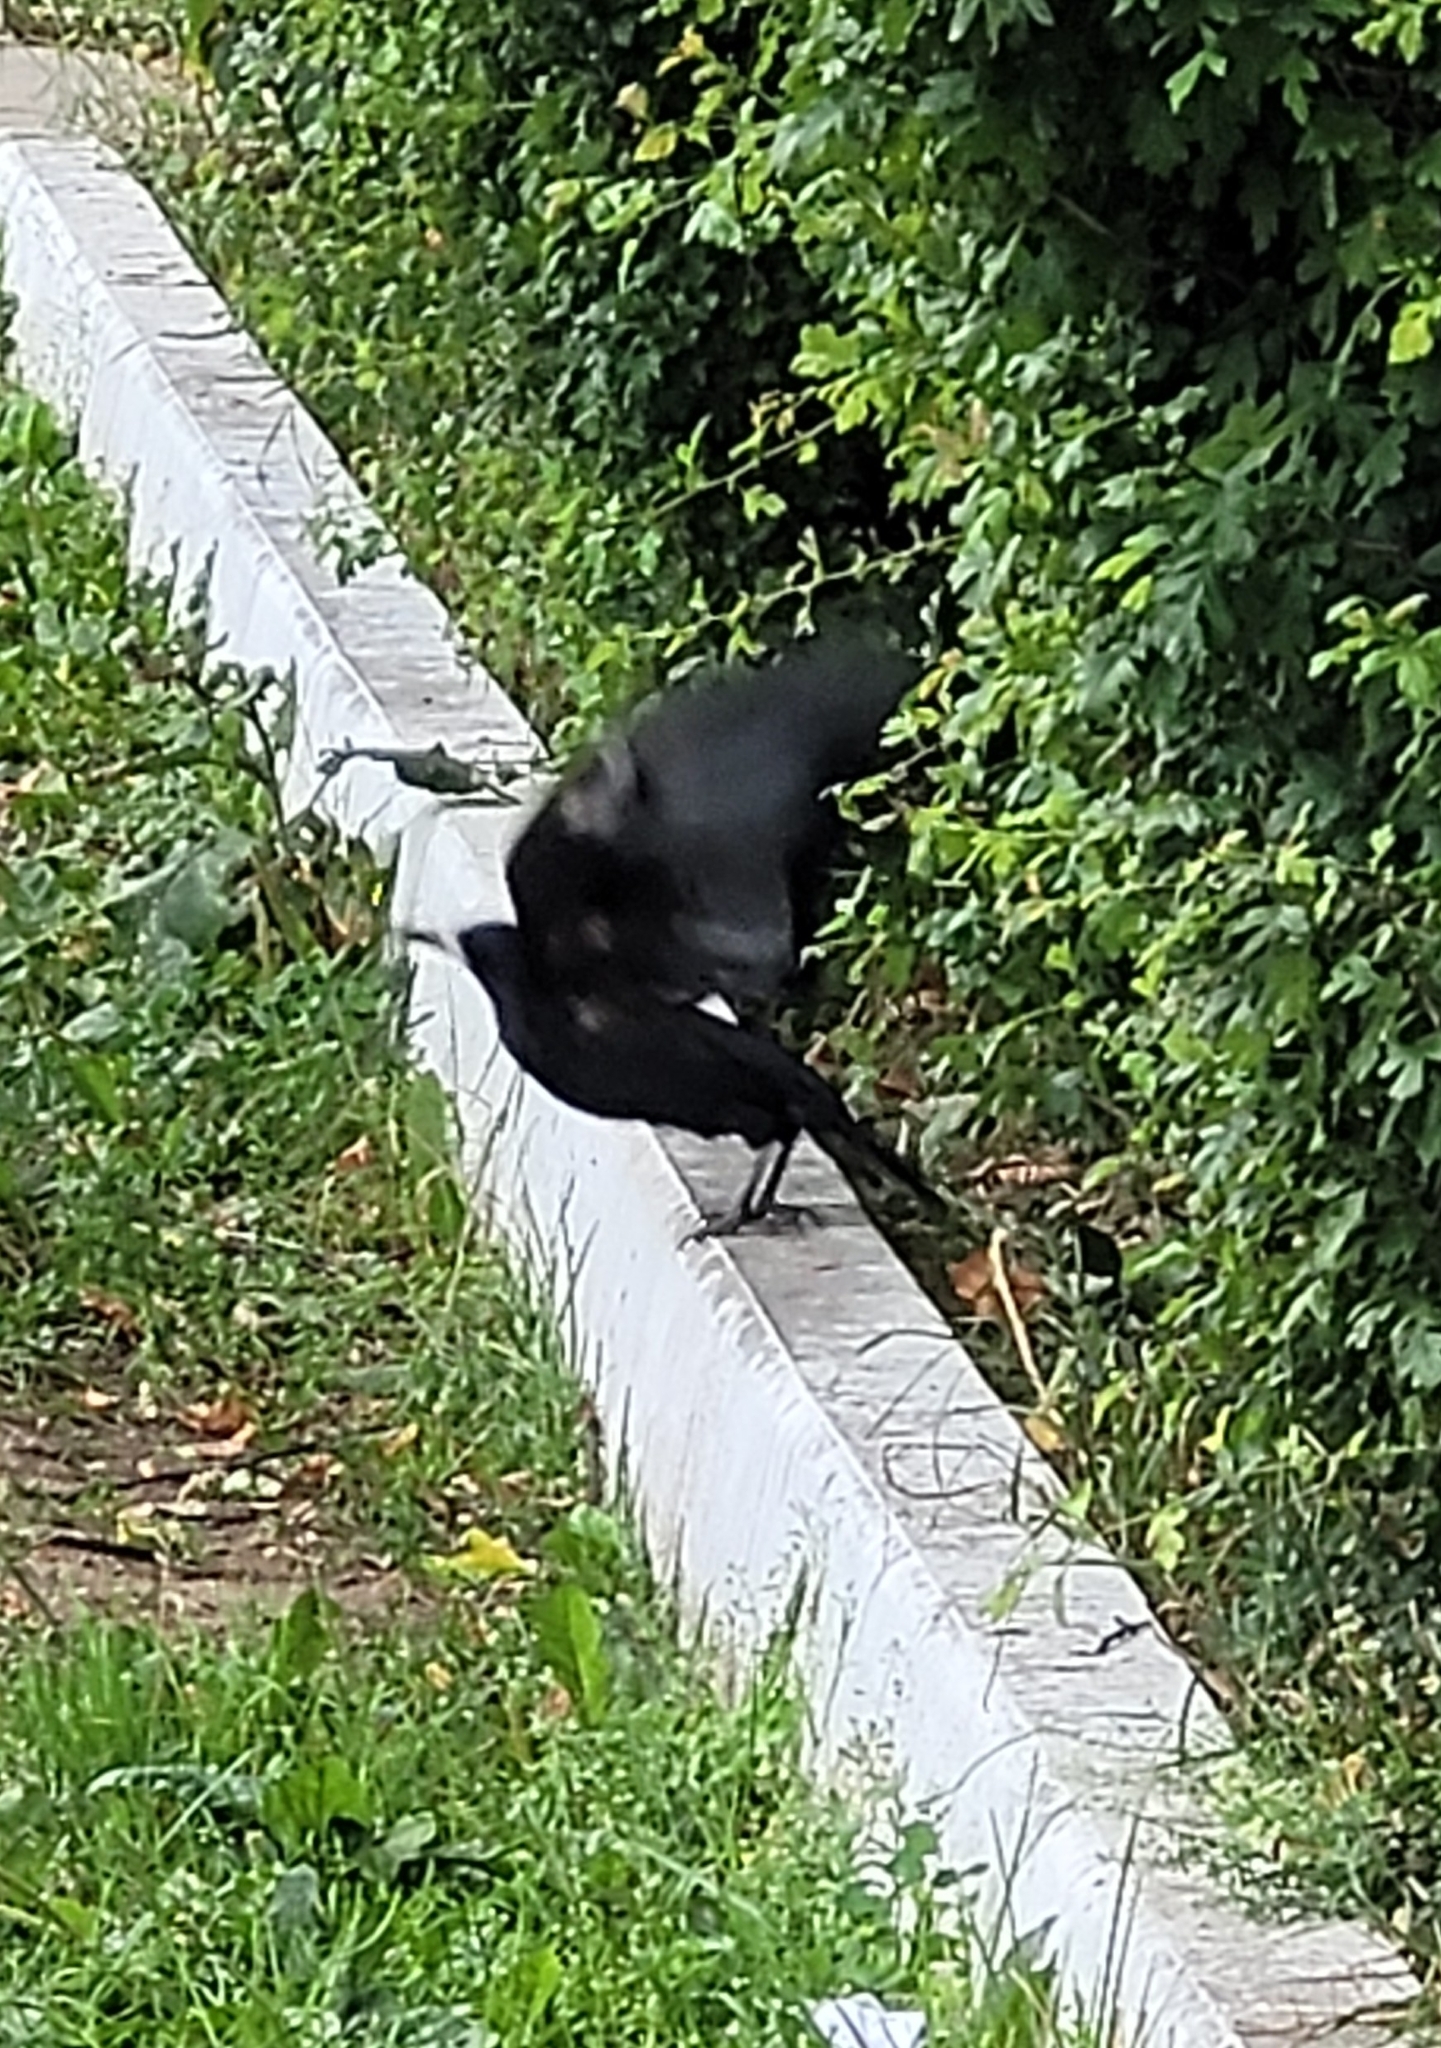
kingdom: Animalia
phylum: Chordata
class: Aves
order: Passeriformes
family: Corvidae
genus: Corvus
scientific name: Corvus frugilegus
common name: Rook
